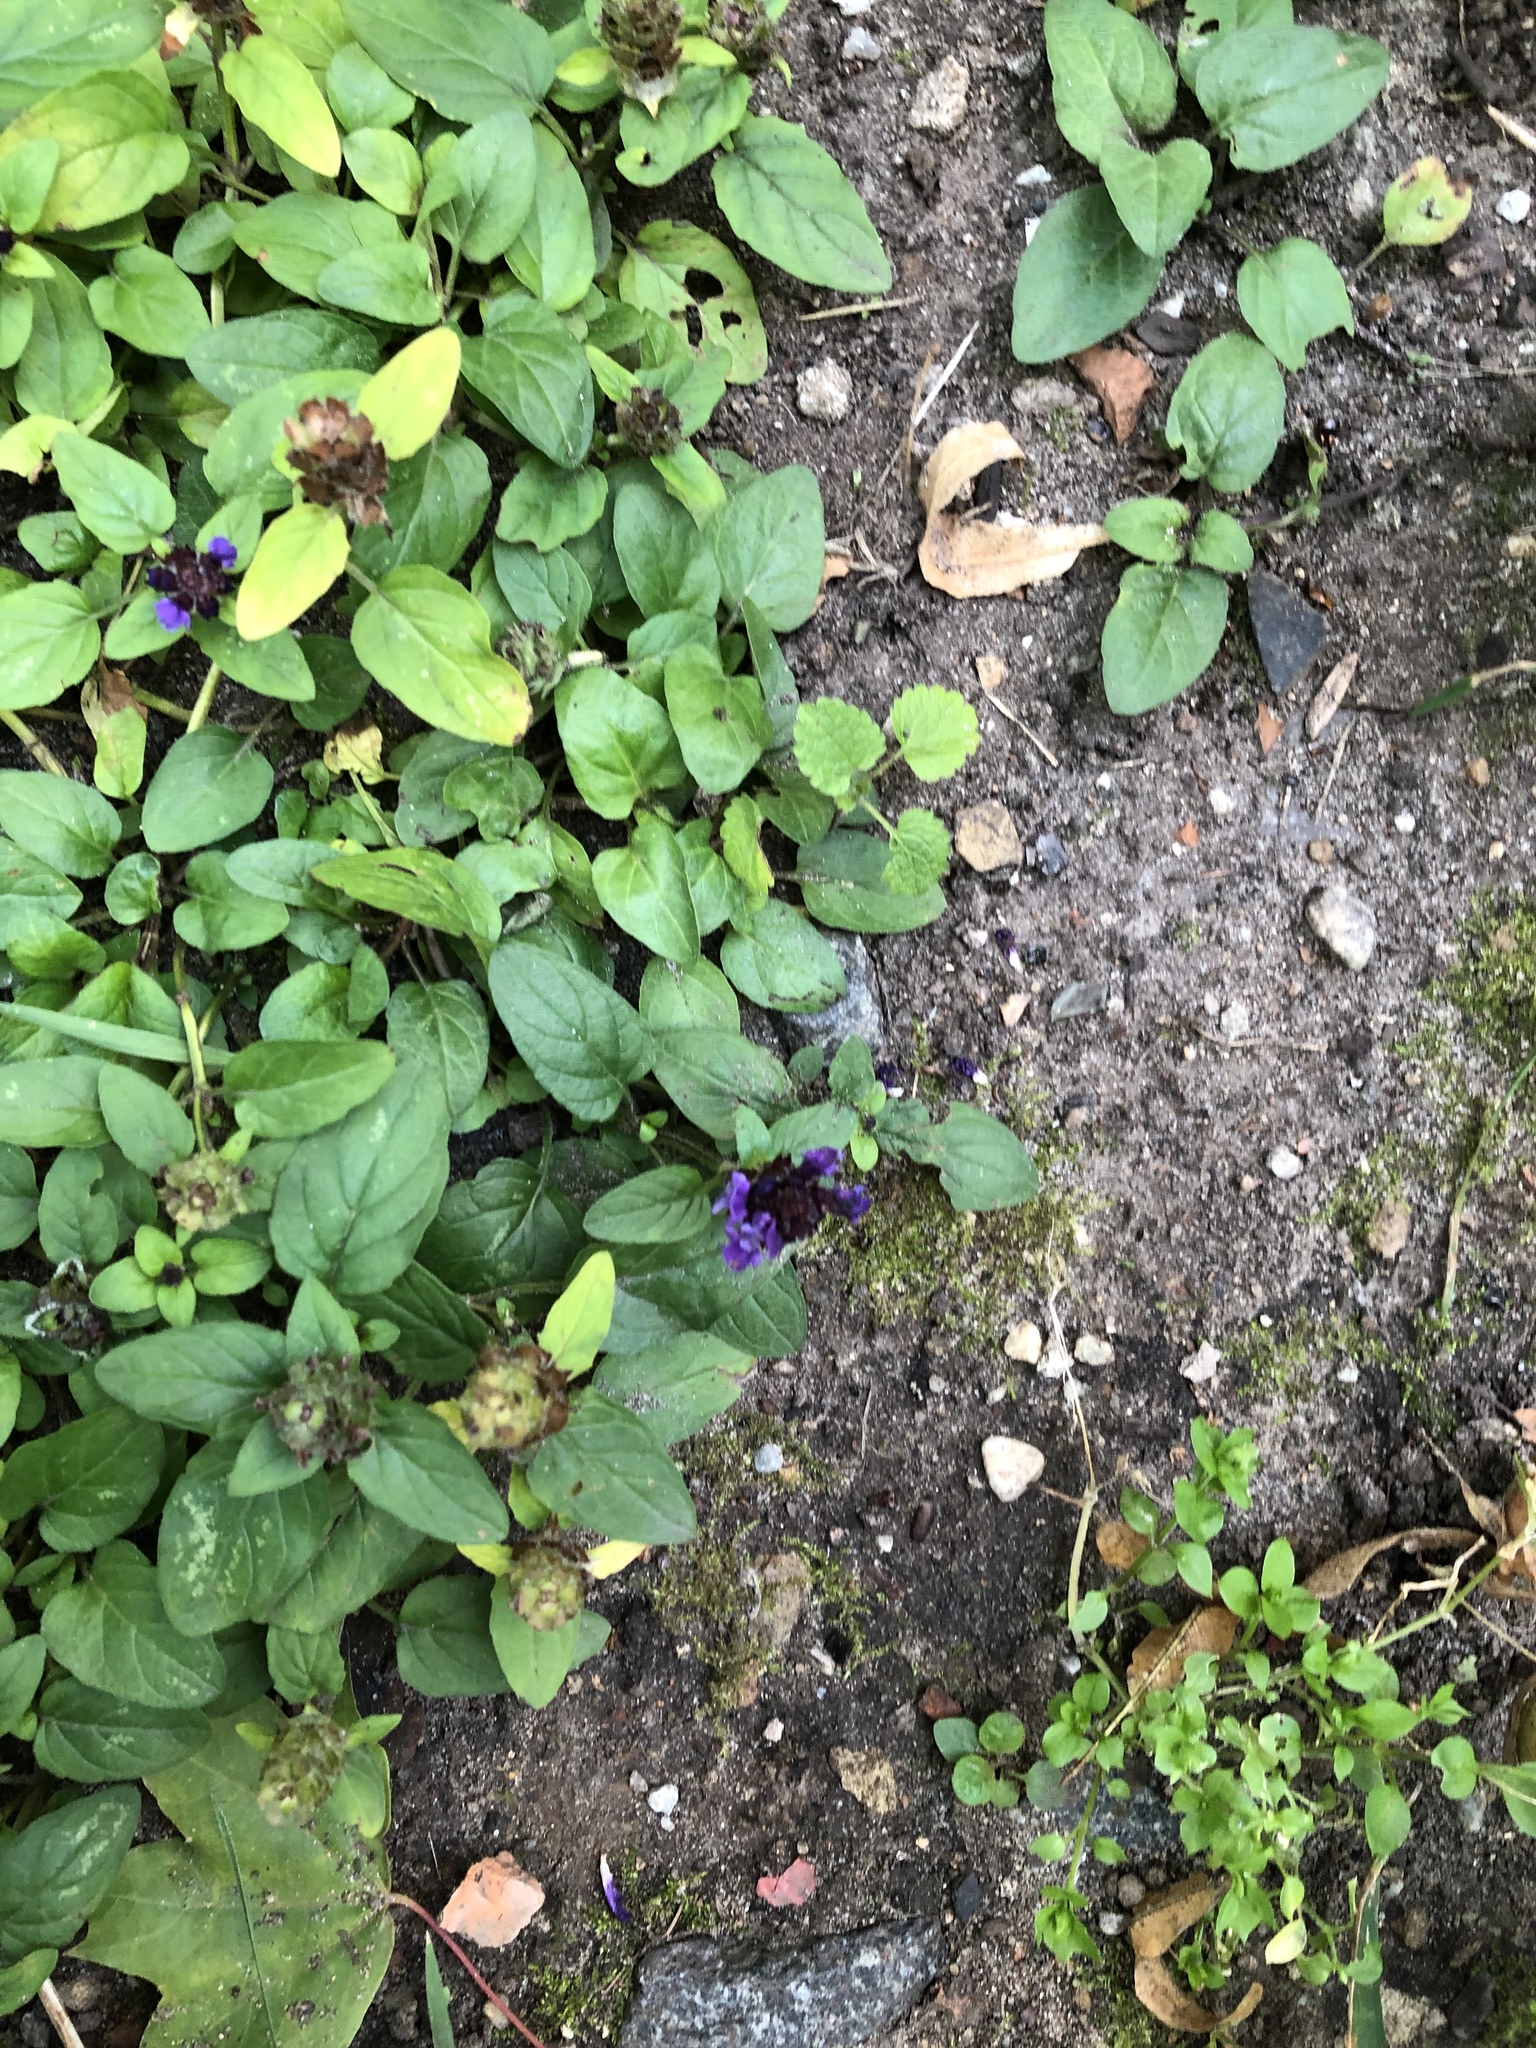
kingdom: Plantae
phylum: Tracheophyta
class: Magnoliopsida
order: Lamiales
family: Lamiaceae
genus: Prunella
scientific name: Prunella vulgaris
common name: Heal-all
